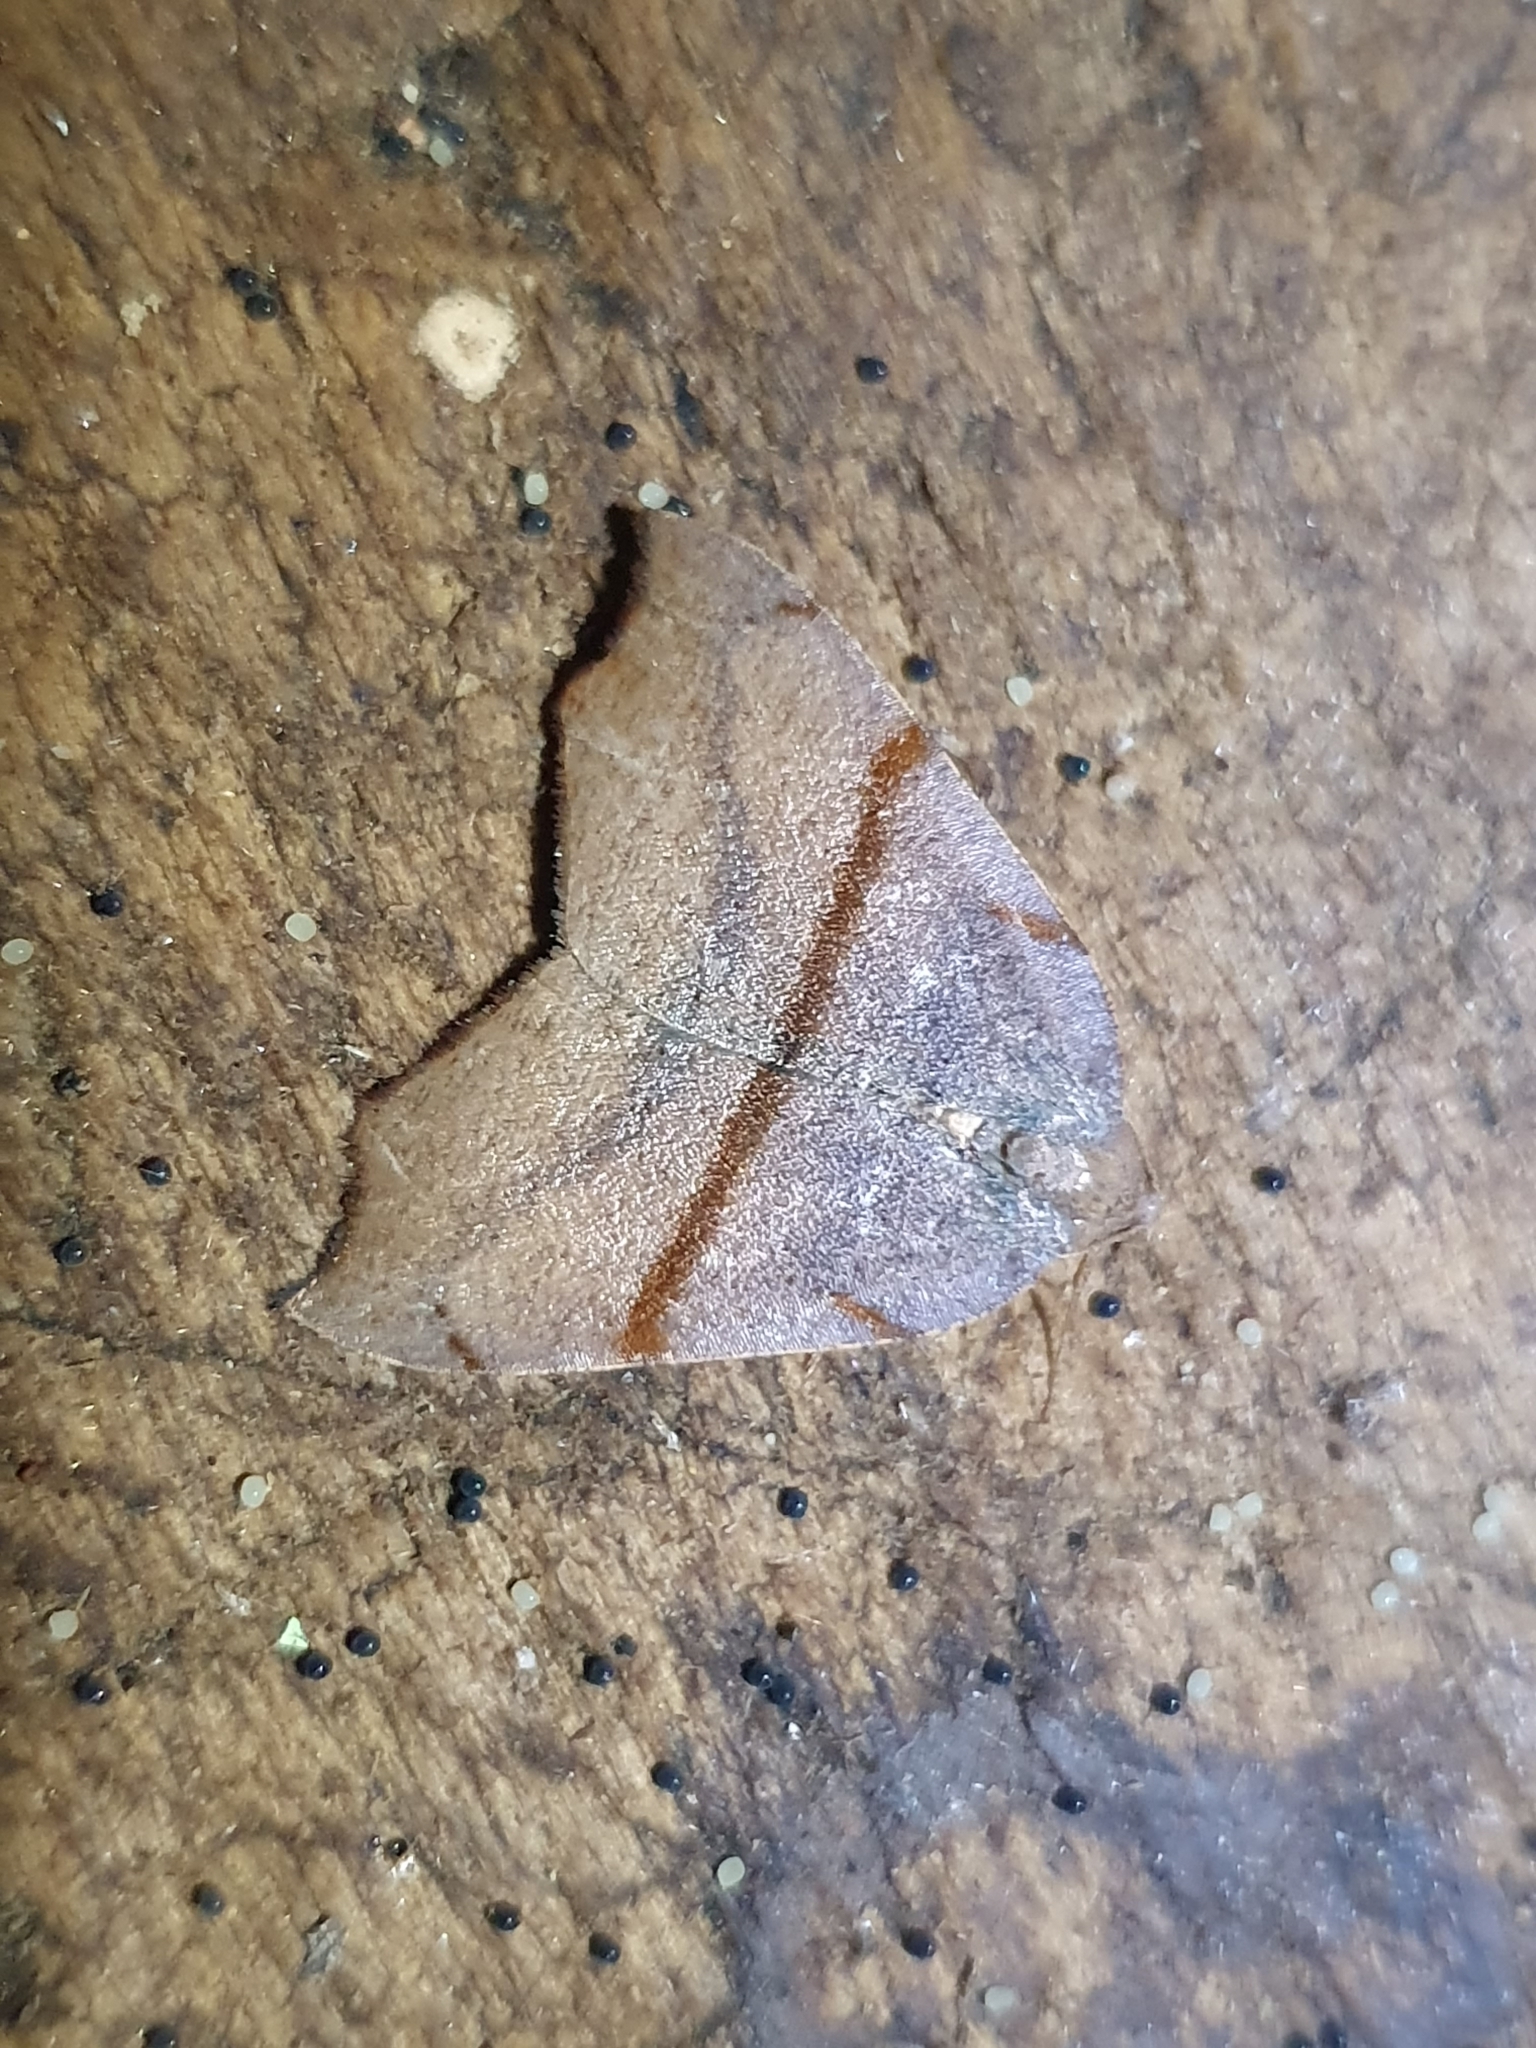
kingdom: Animalia
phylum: Arthropoda
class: Insecta
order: Lepidoptera
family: Geometridae
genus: Sestra
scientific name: Sestra flexata
